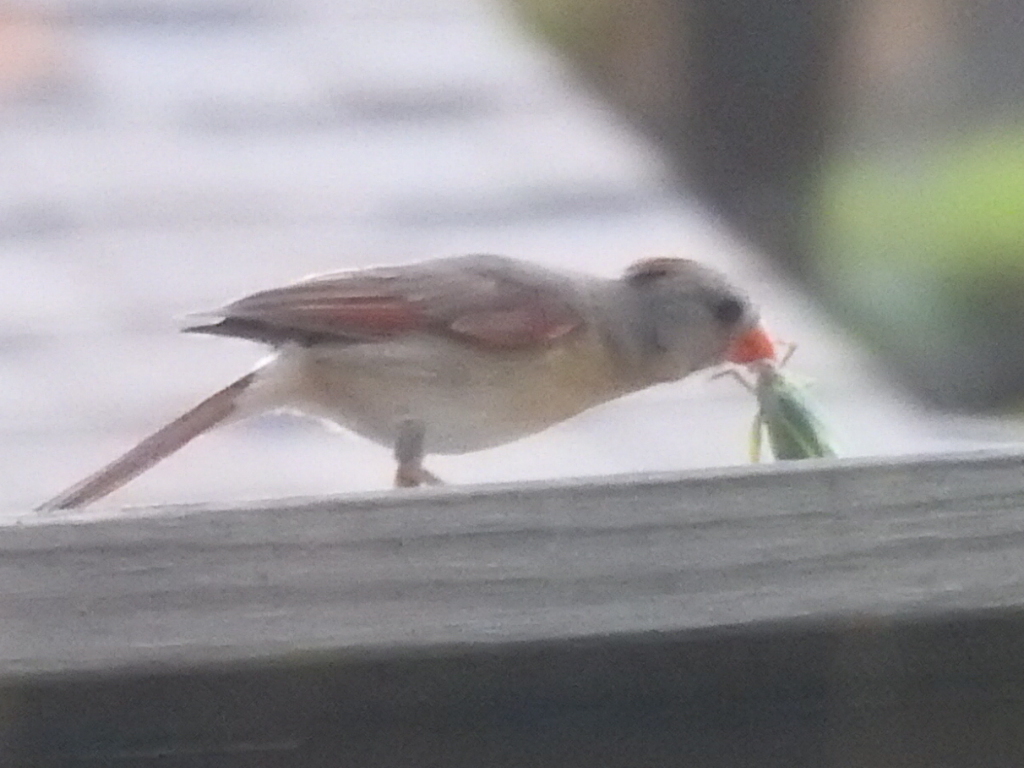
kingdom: Animalia
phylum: Chordata
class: Aves
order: Passeriformes
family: Cardinalidae
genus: Cardinalis
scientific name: Cardinalis cardinalis
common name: Northern cardinal
